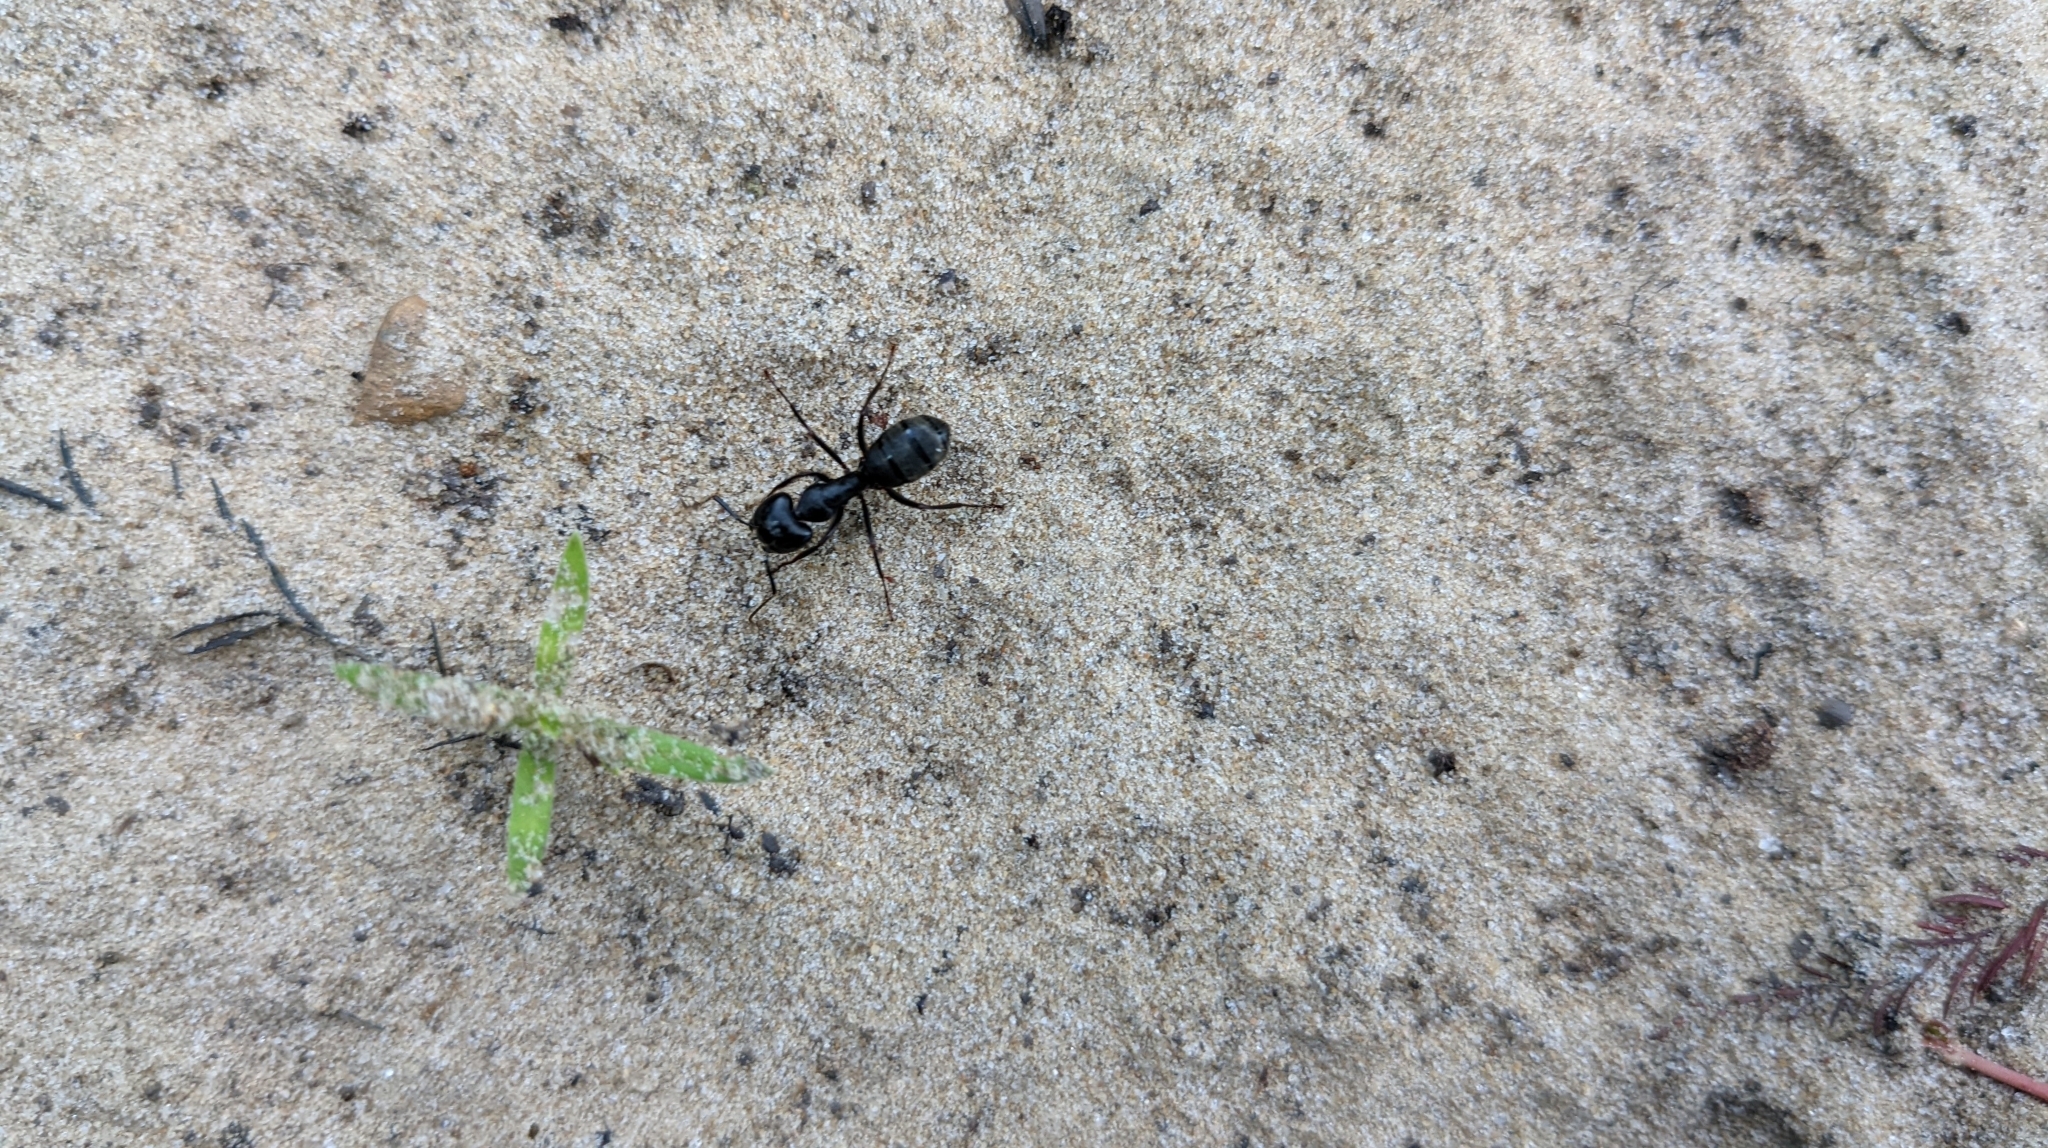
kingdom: Animalia
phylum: Arthropoda
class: Insecta
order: Hymenoptera
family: Formicidae
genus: Camponotus
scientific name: Camponotus pennsylvanicus
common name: Black carpenter ant
